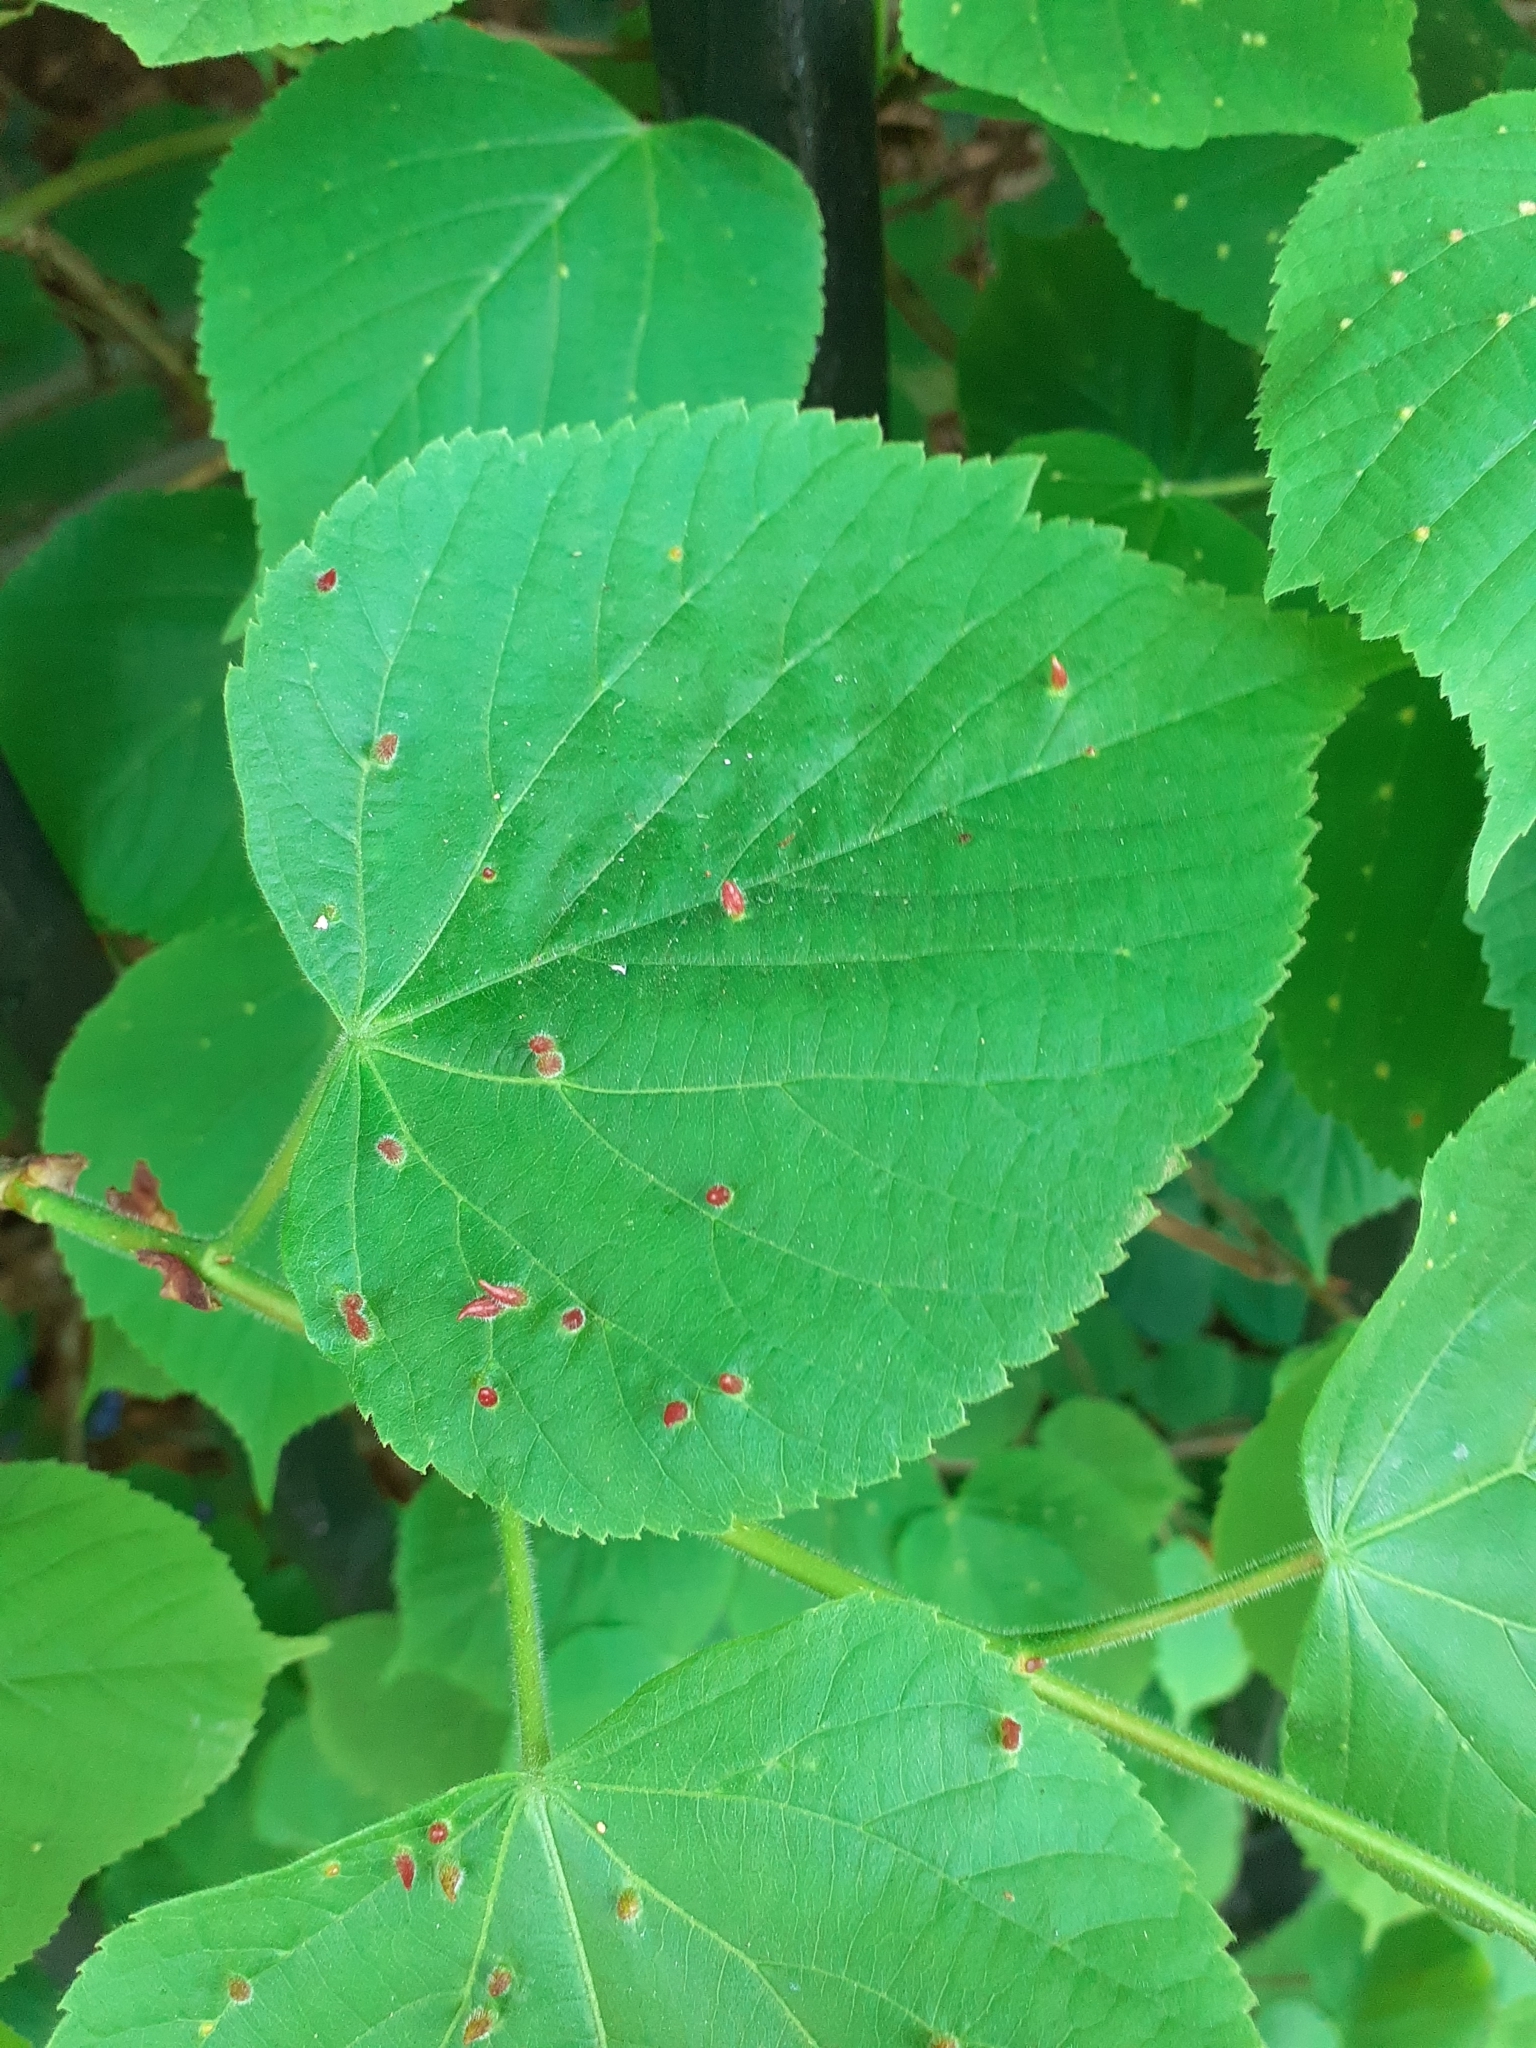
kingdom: Animalia
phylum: Arthropoda
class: Arachnida
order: Trombidiformes
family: Eriophyidae
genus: Eriophyes
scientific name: Eriophyes tiliae
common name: Red nail gall mite
